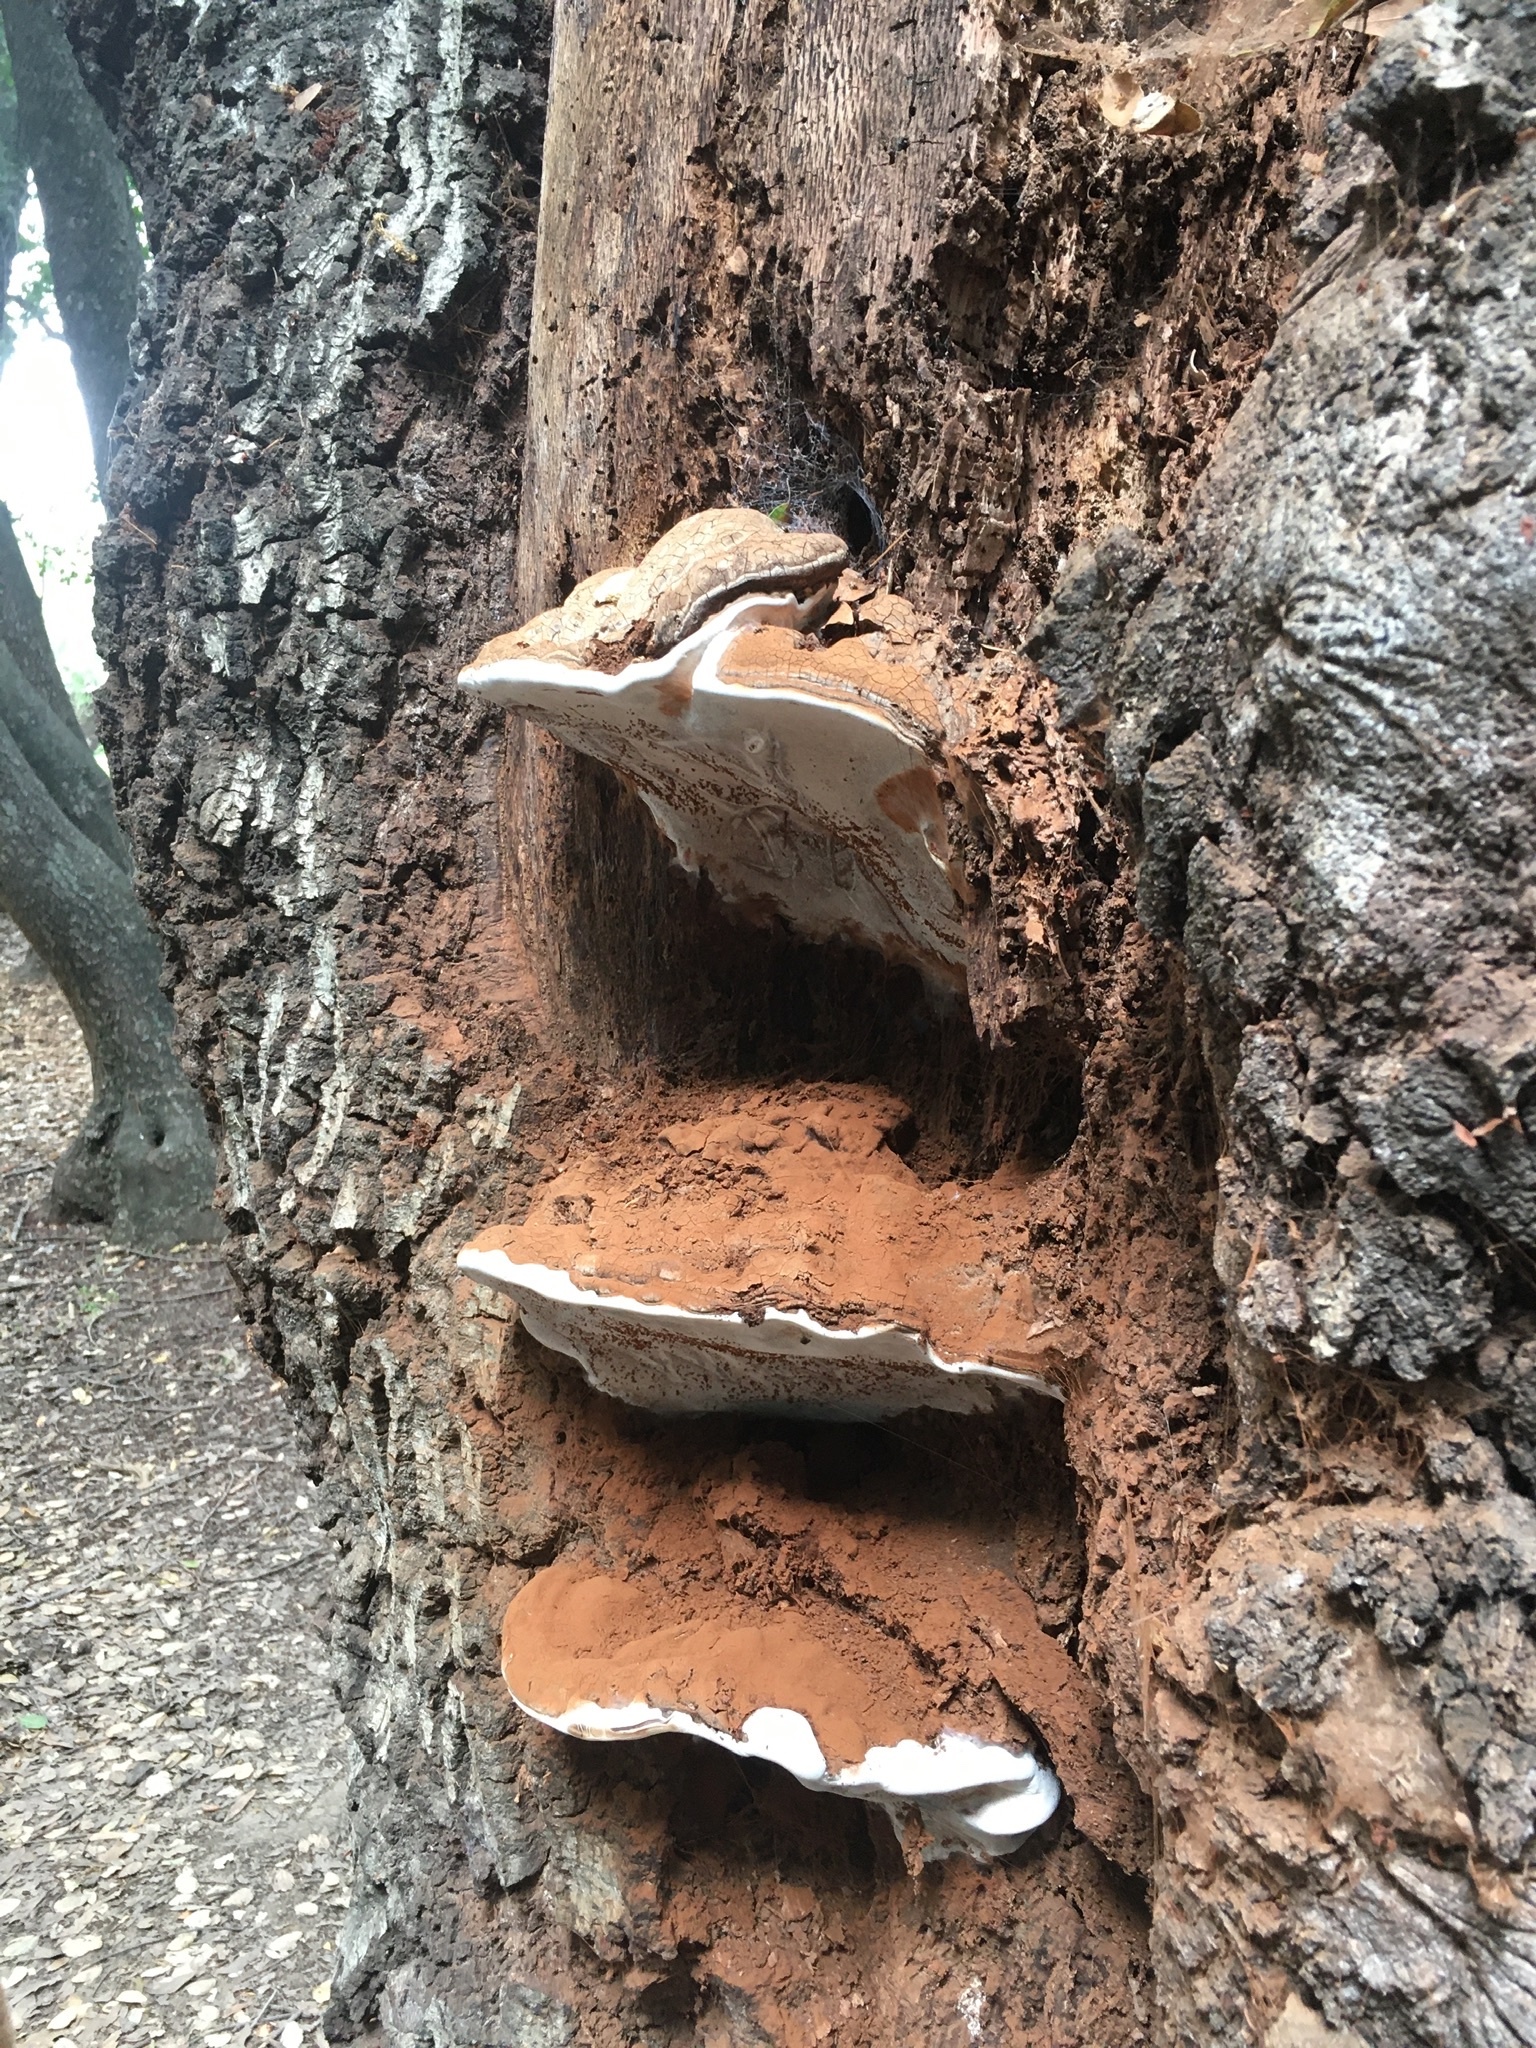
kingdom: Fungi
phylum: Basidiomycota
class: Agaricomycetes
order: Polyporales
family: Polyporaceae
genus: Ganoderma
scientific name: Ganoderma brownii
